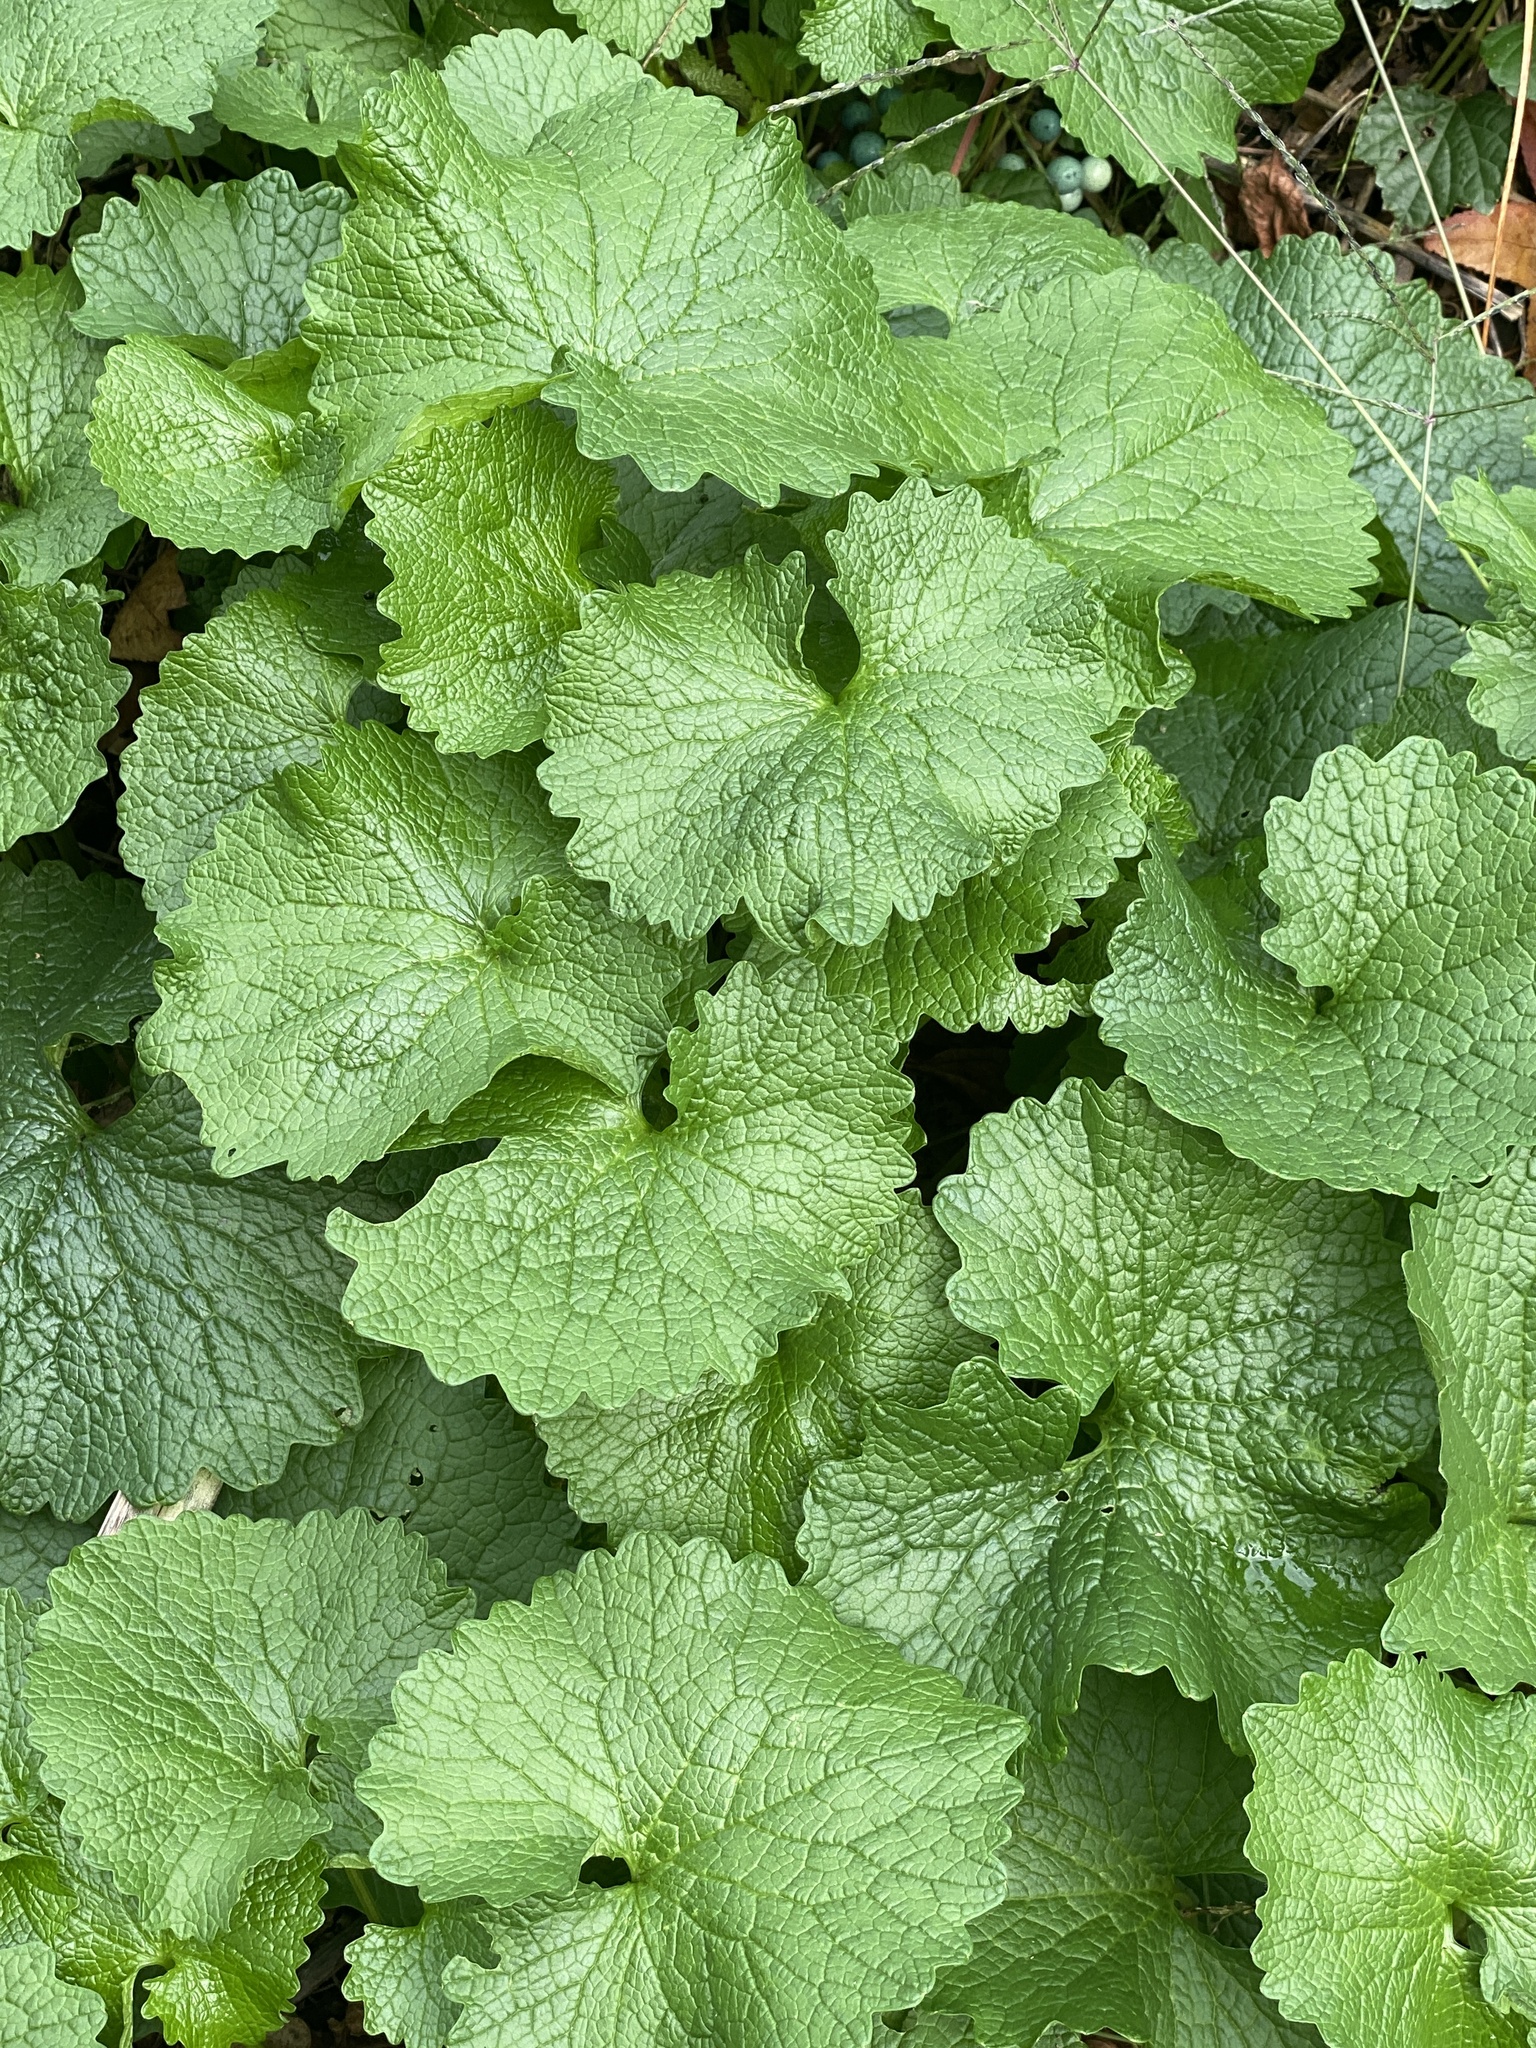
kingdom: Plantae
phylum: Tracheophyta
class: Magnoliopsida
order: Brassicales
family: Brassicaceae
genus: Alliaria
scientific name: Alliaria petiolata
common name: Garlic mustard
